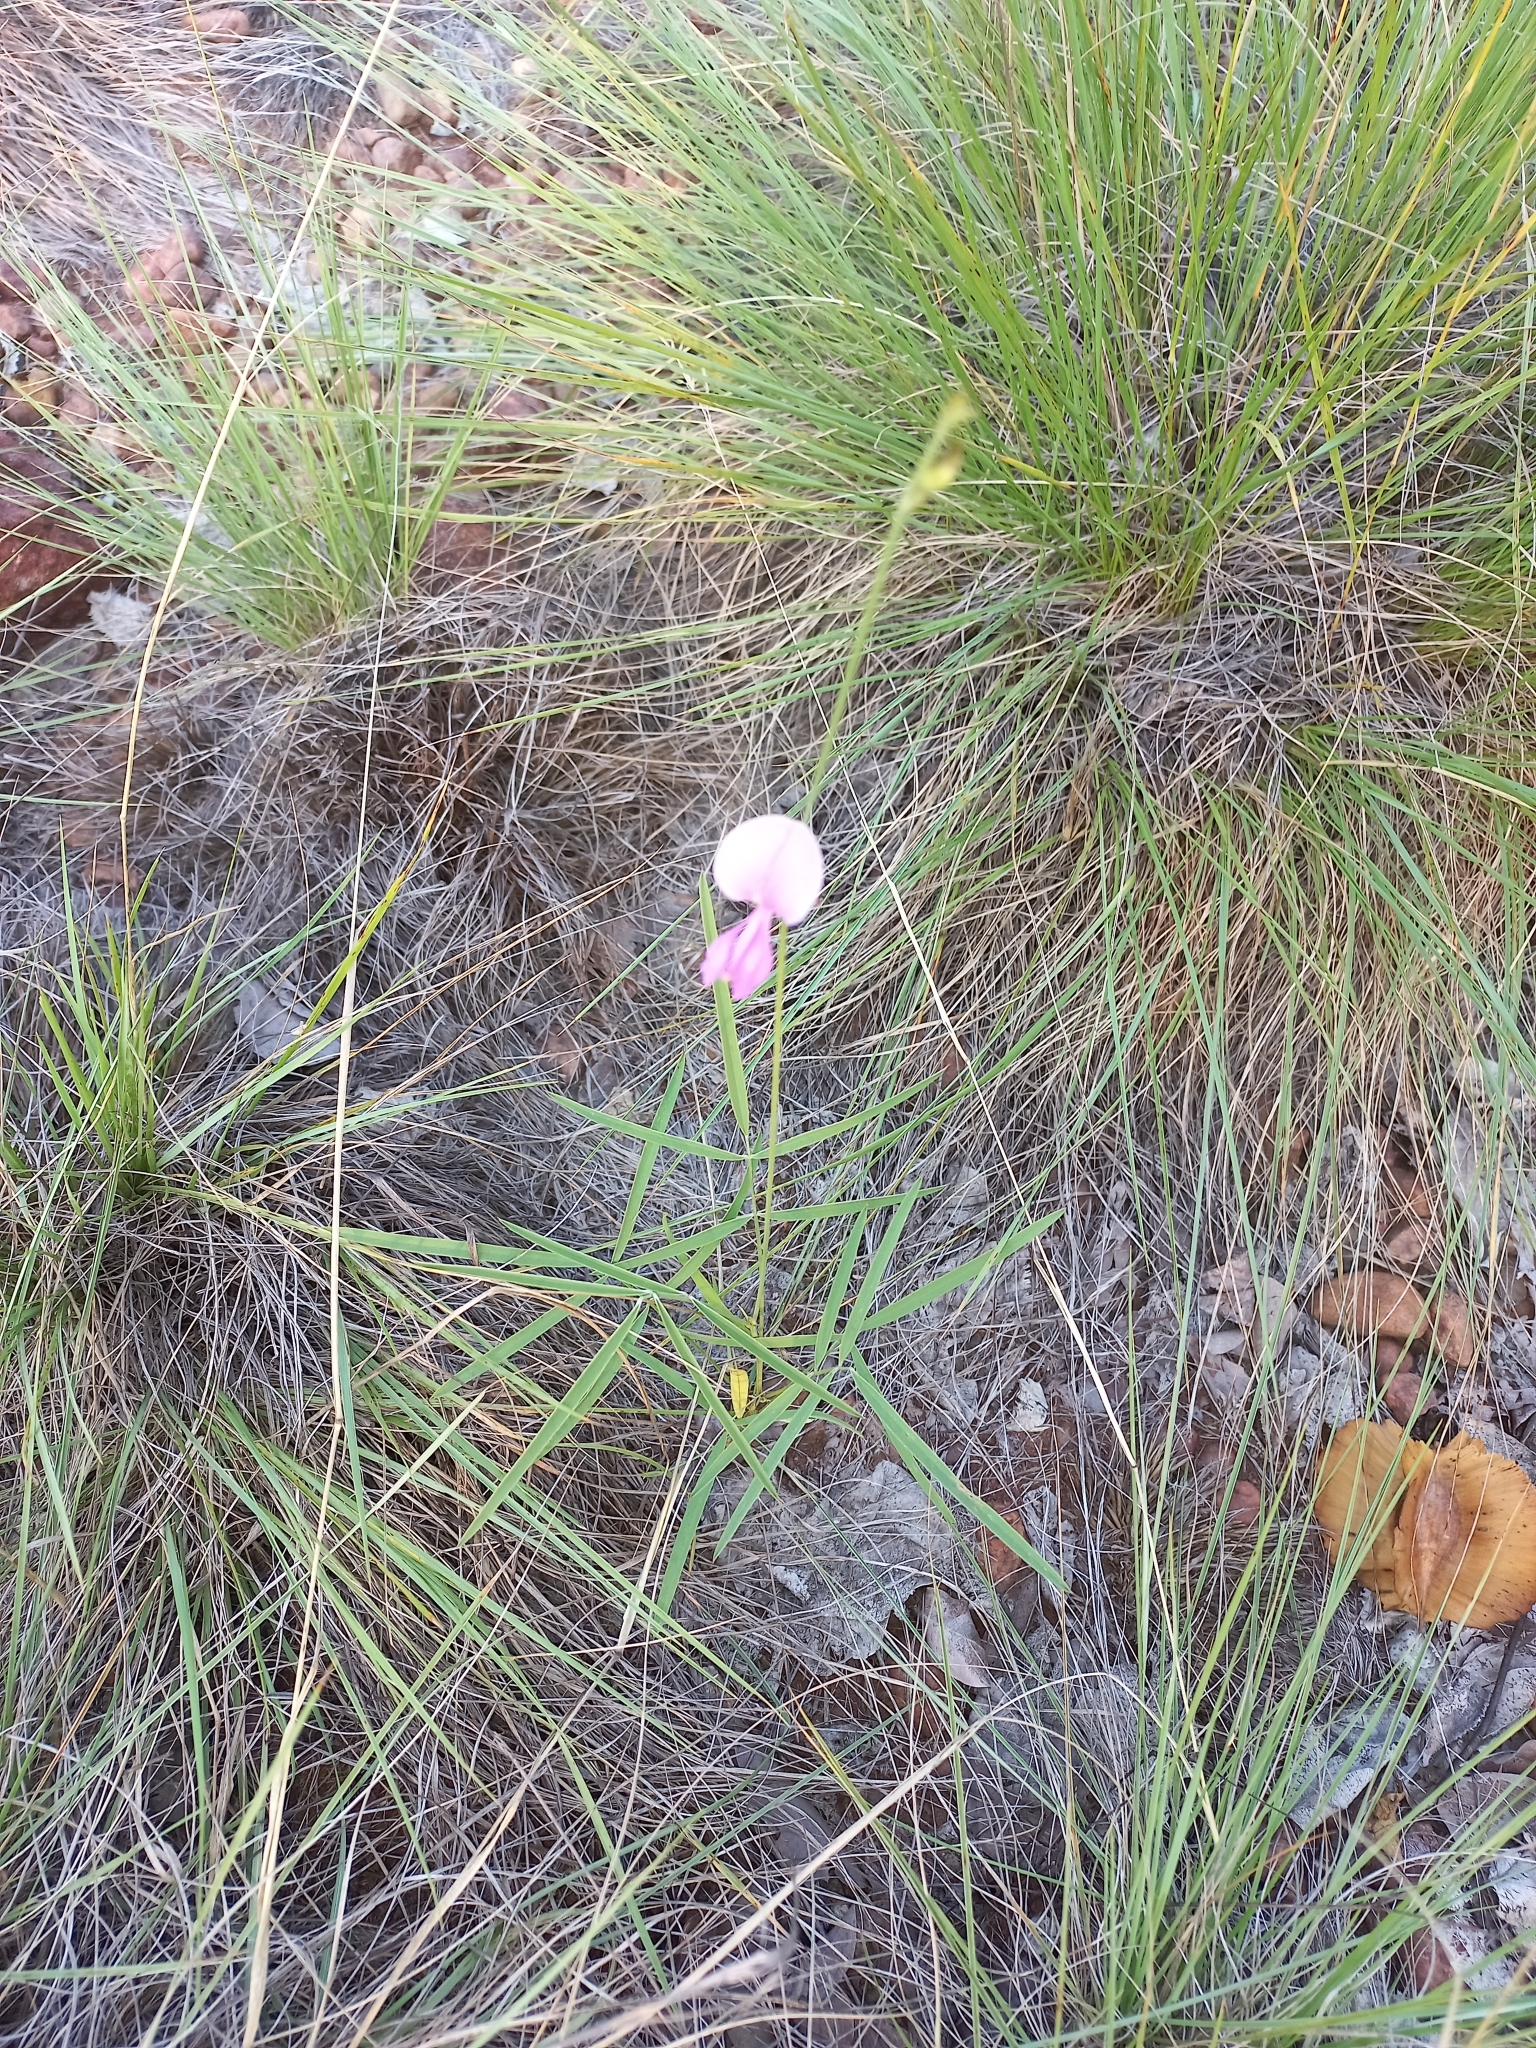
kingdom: Plantae
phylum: Tracheophyta
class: Magnoliopsida
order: Fabales
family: Fabaceae
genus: Tephrosia
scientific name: Tephrosia longipes
